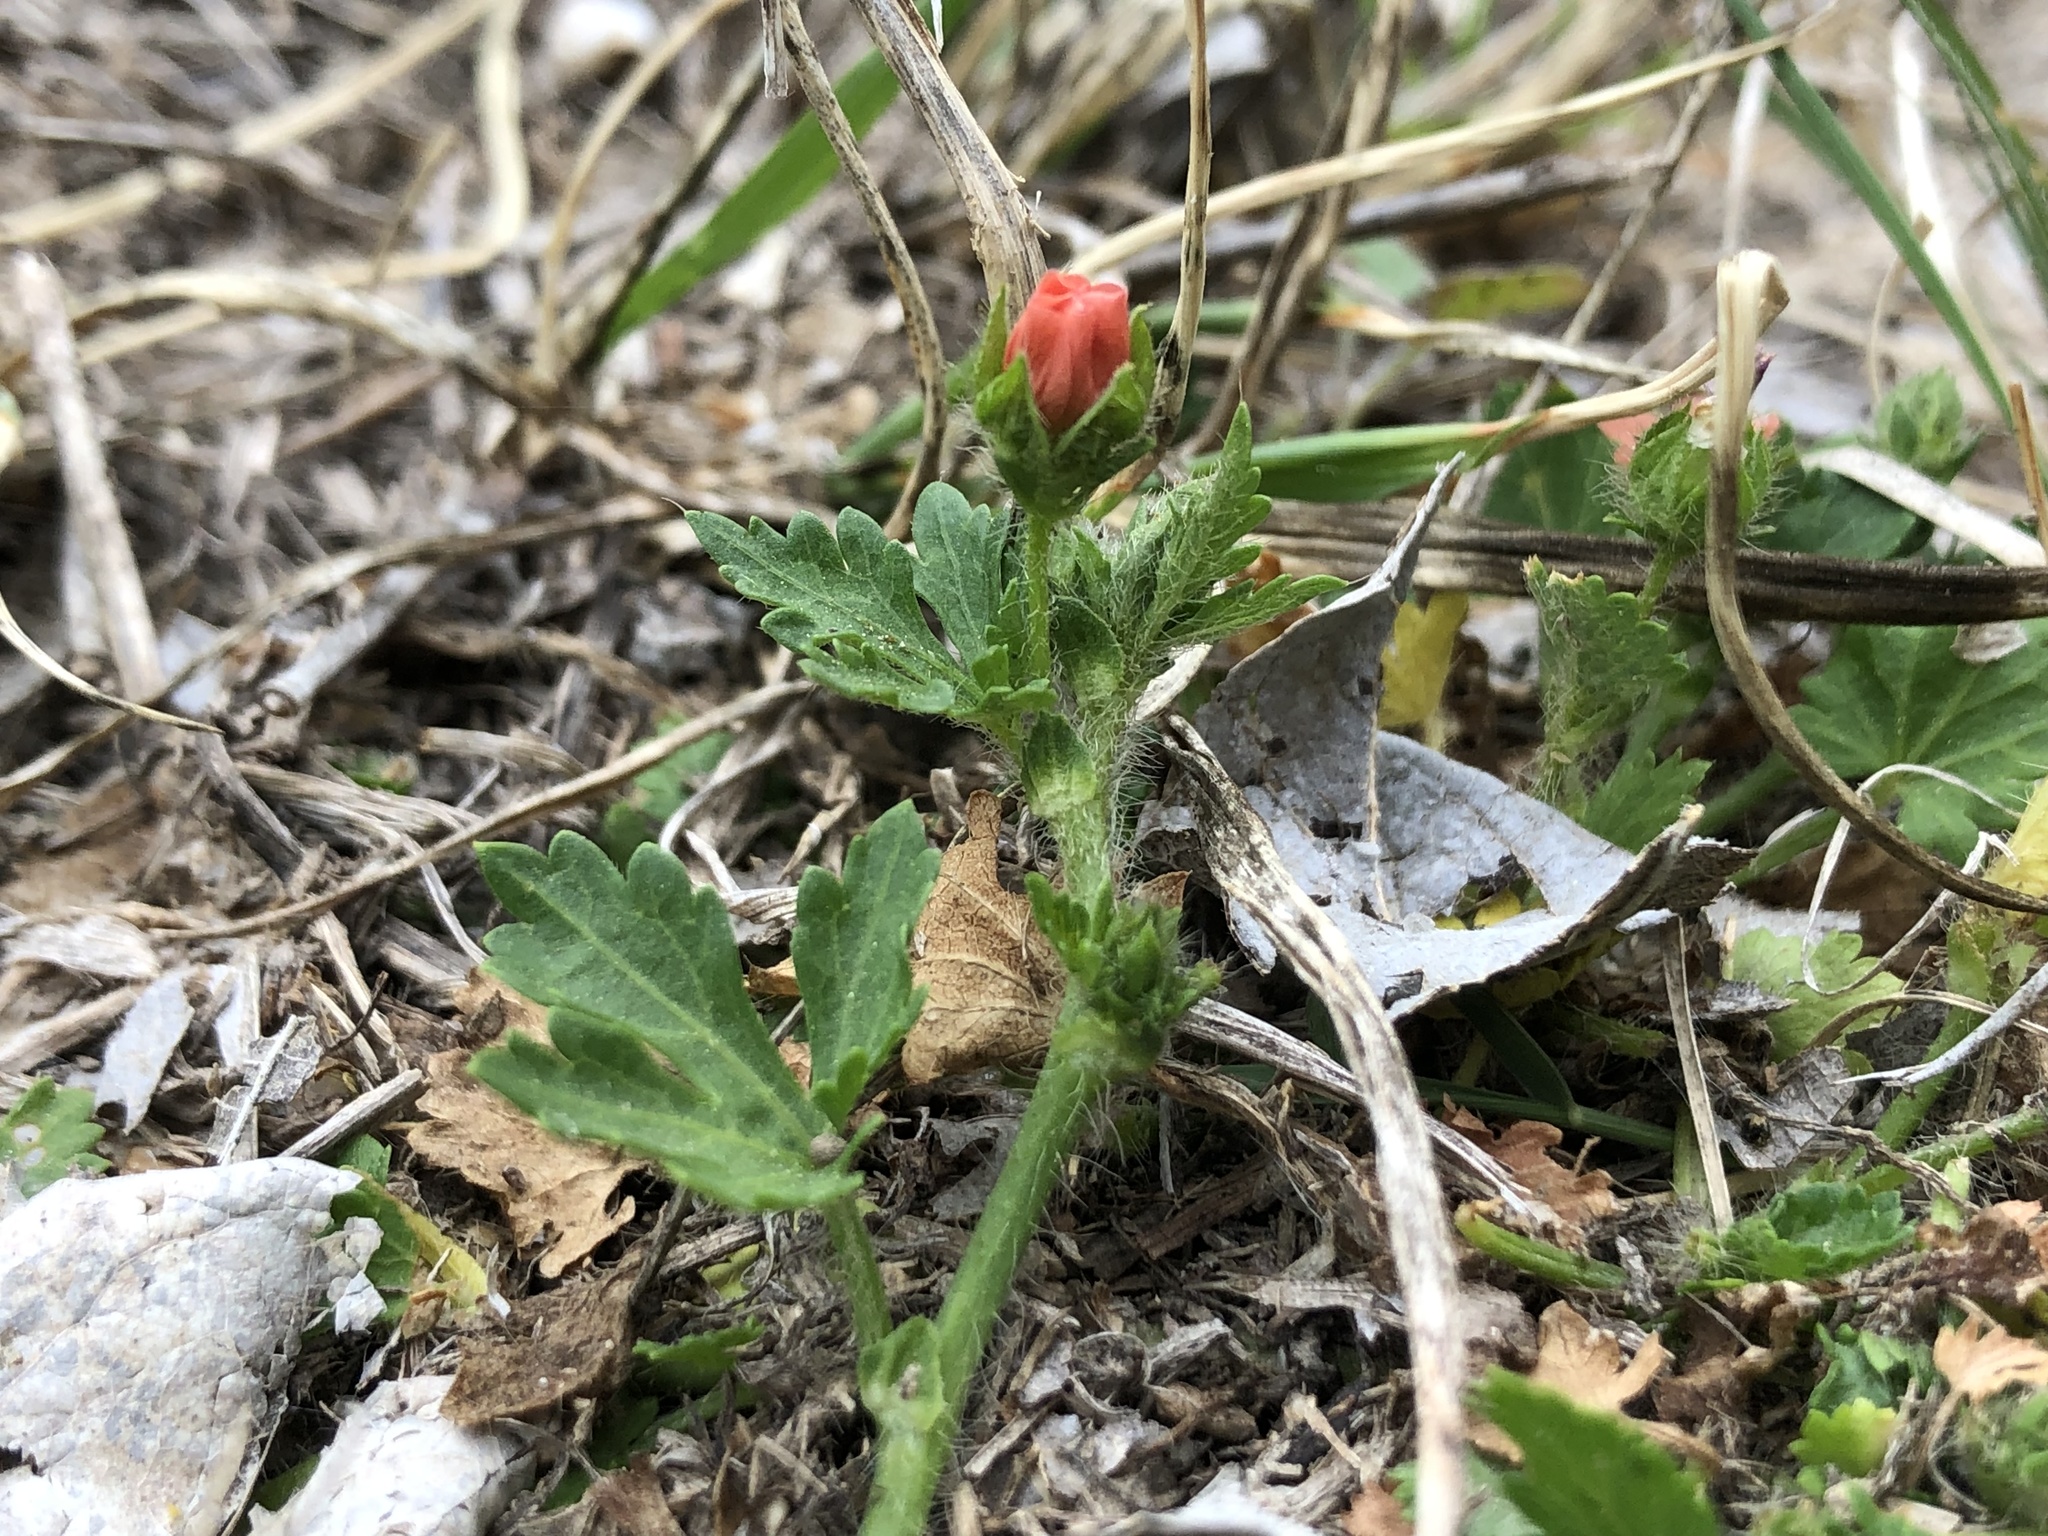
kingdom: Plantae
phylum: Tracheophyta
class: Magnoliopsida
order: Malvales
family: Malvaceae
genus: Modiola
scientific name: Modiola caroliniana
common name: Carolina bristlemallow
